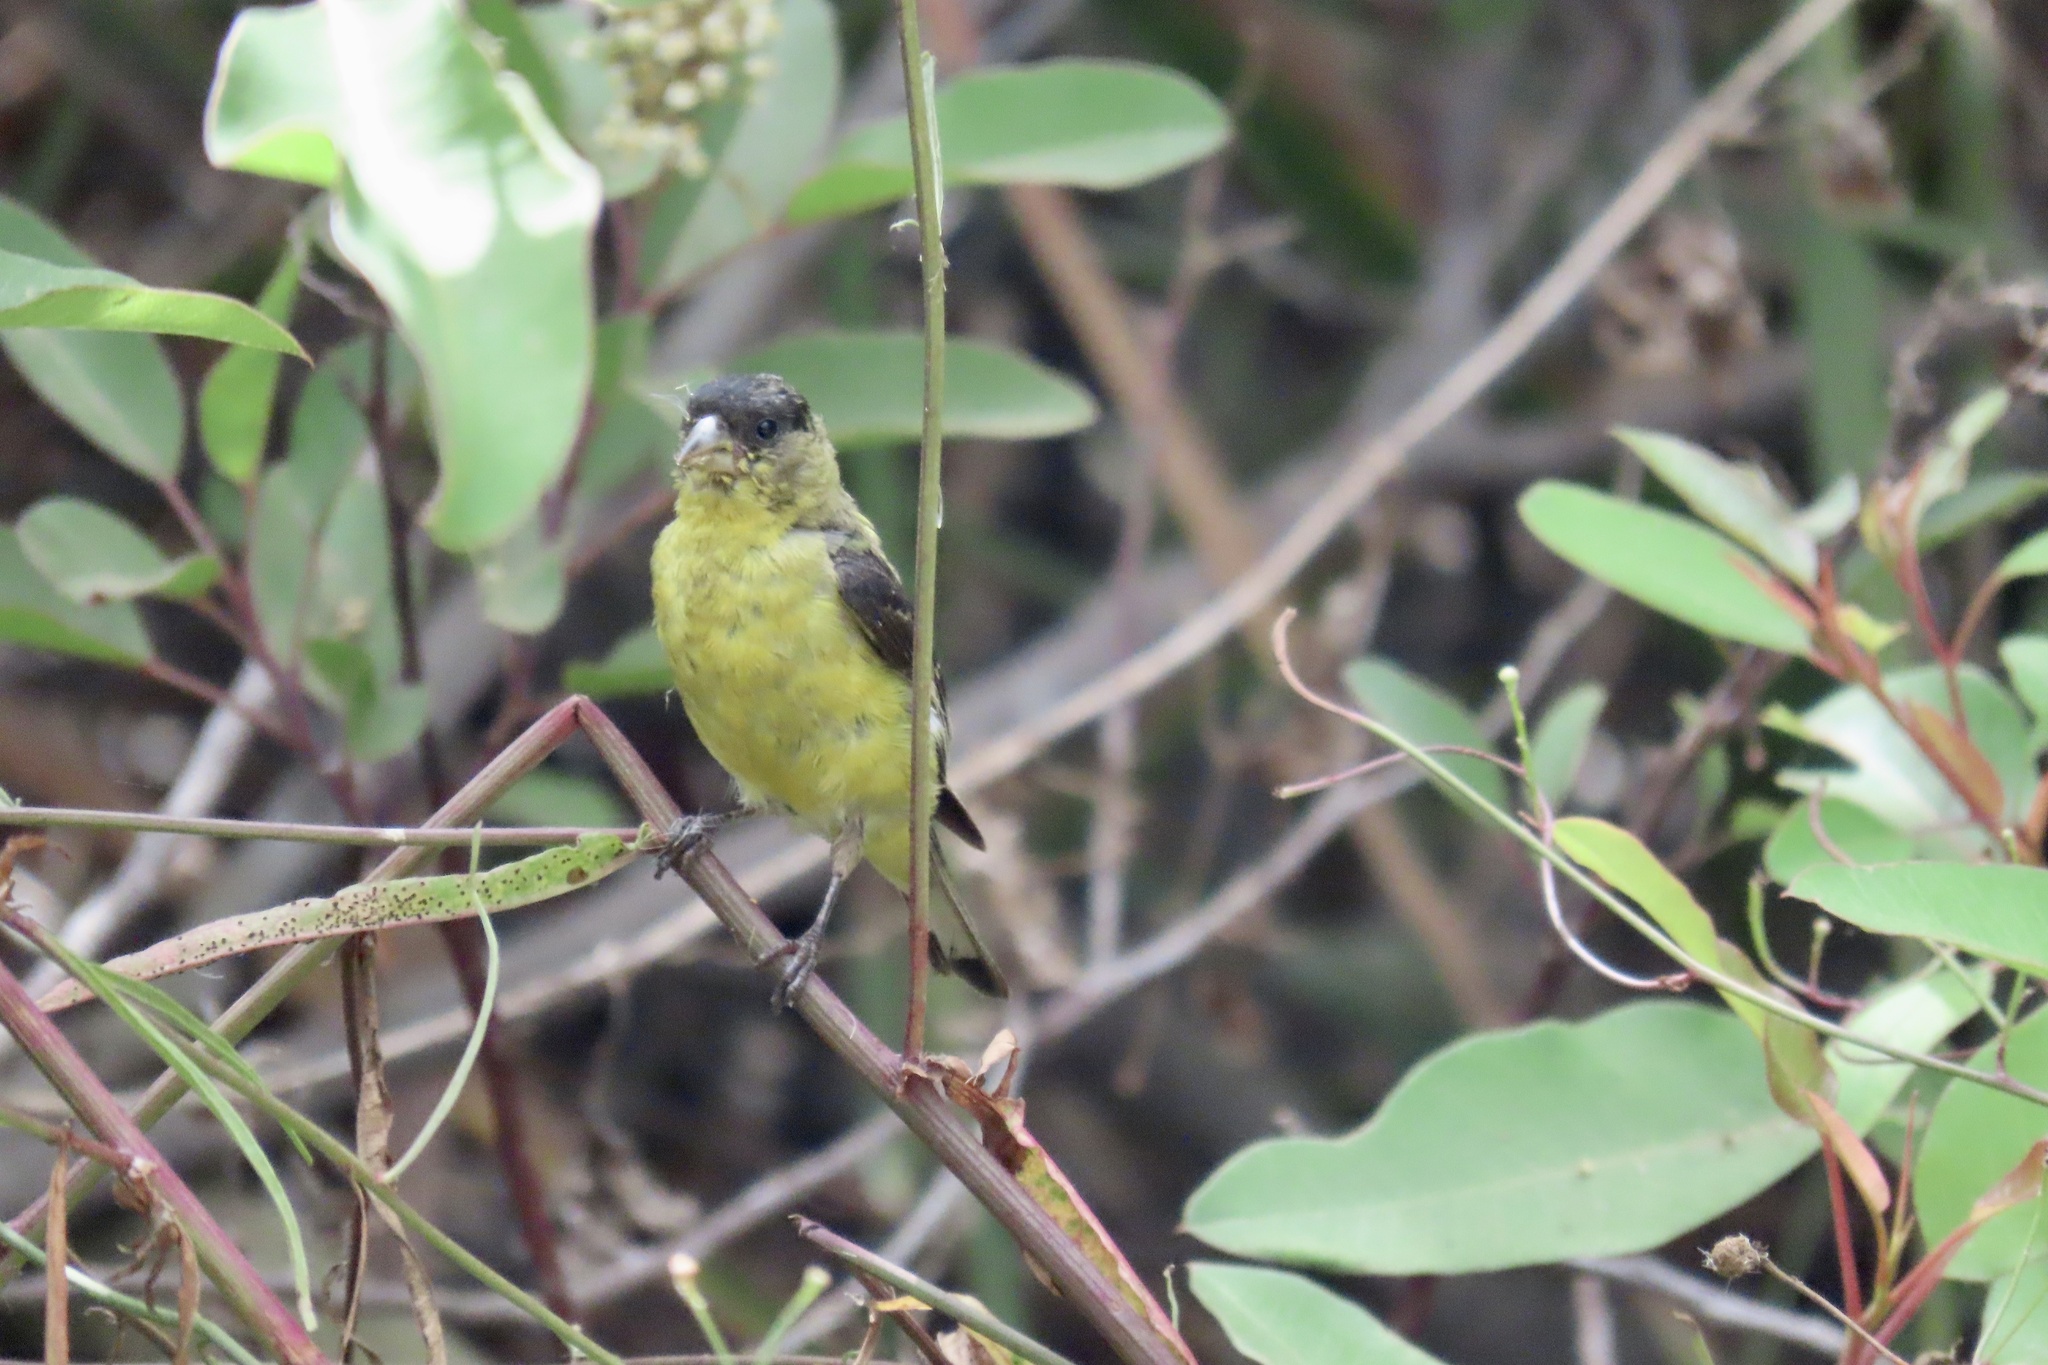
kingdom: Animalia
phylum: Chordata
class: Aves
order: Passeriformes
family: Fringillidae
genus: Spinus
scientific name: Spinus psaltria
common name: Lesser goldfinch
